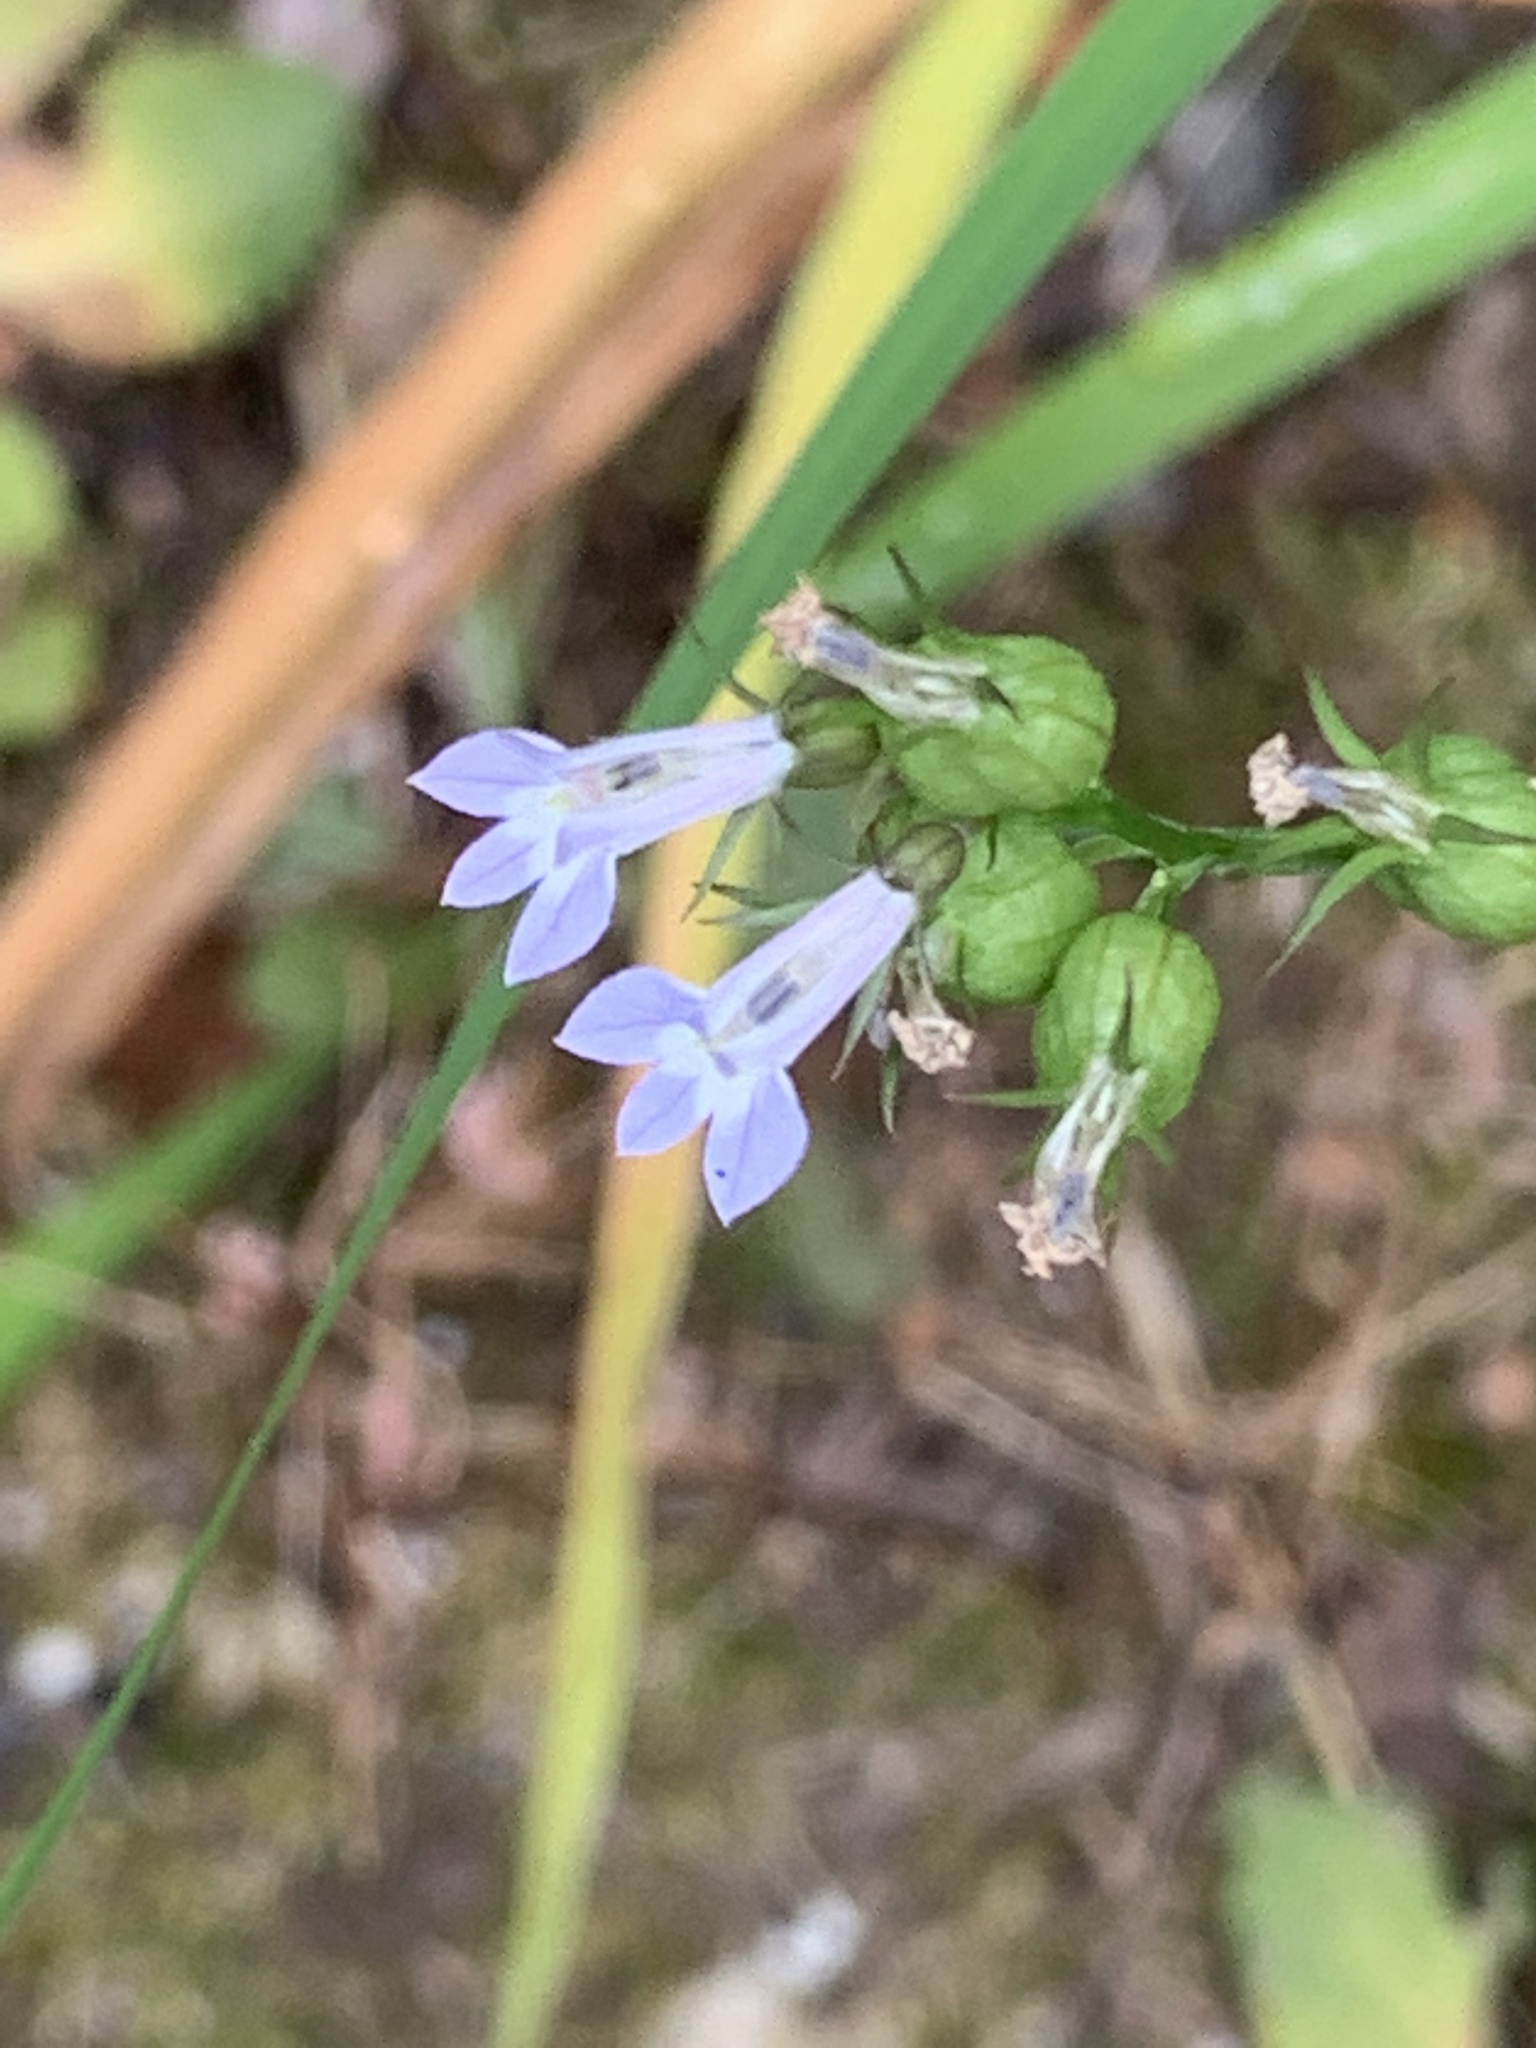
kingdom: Plantae
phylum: Tracheophyta
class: Magnoliopsida
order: Asterales
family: Campanulaceae
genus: Lobelia
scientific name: Lobelia inflata
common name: Indian tobacco
